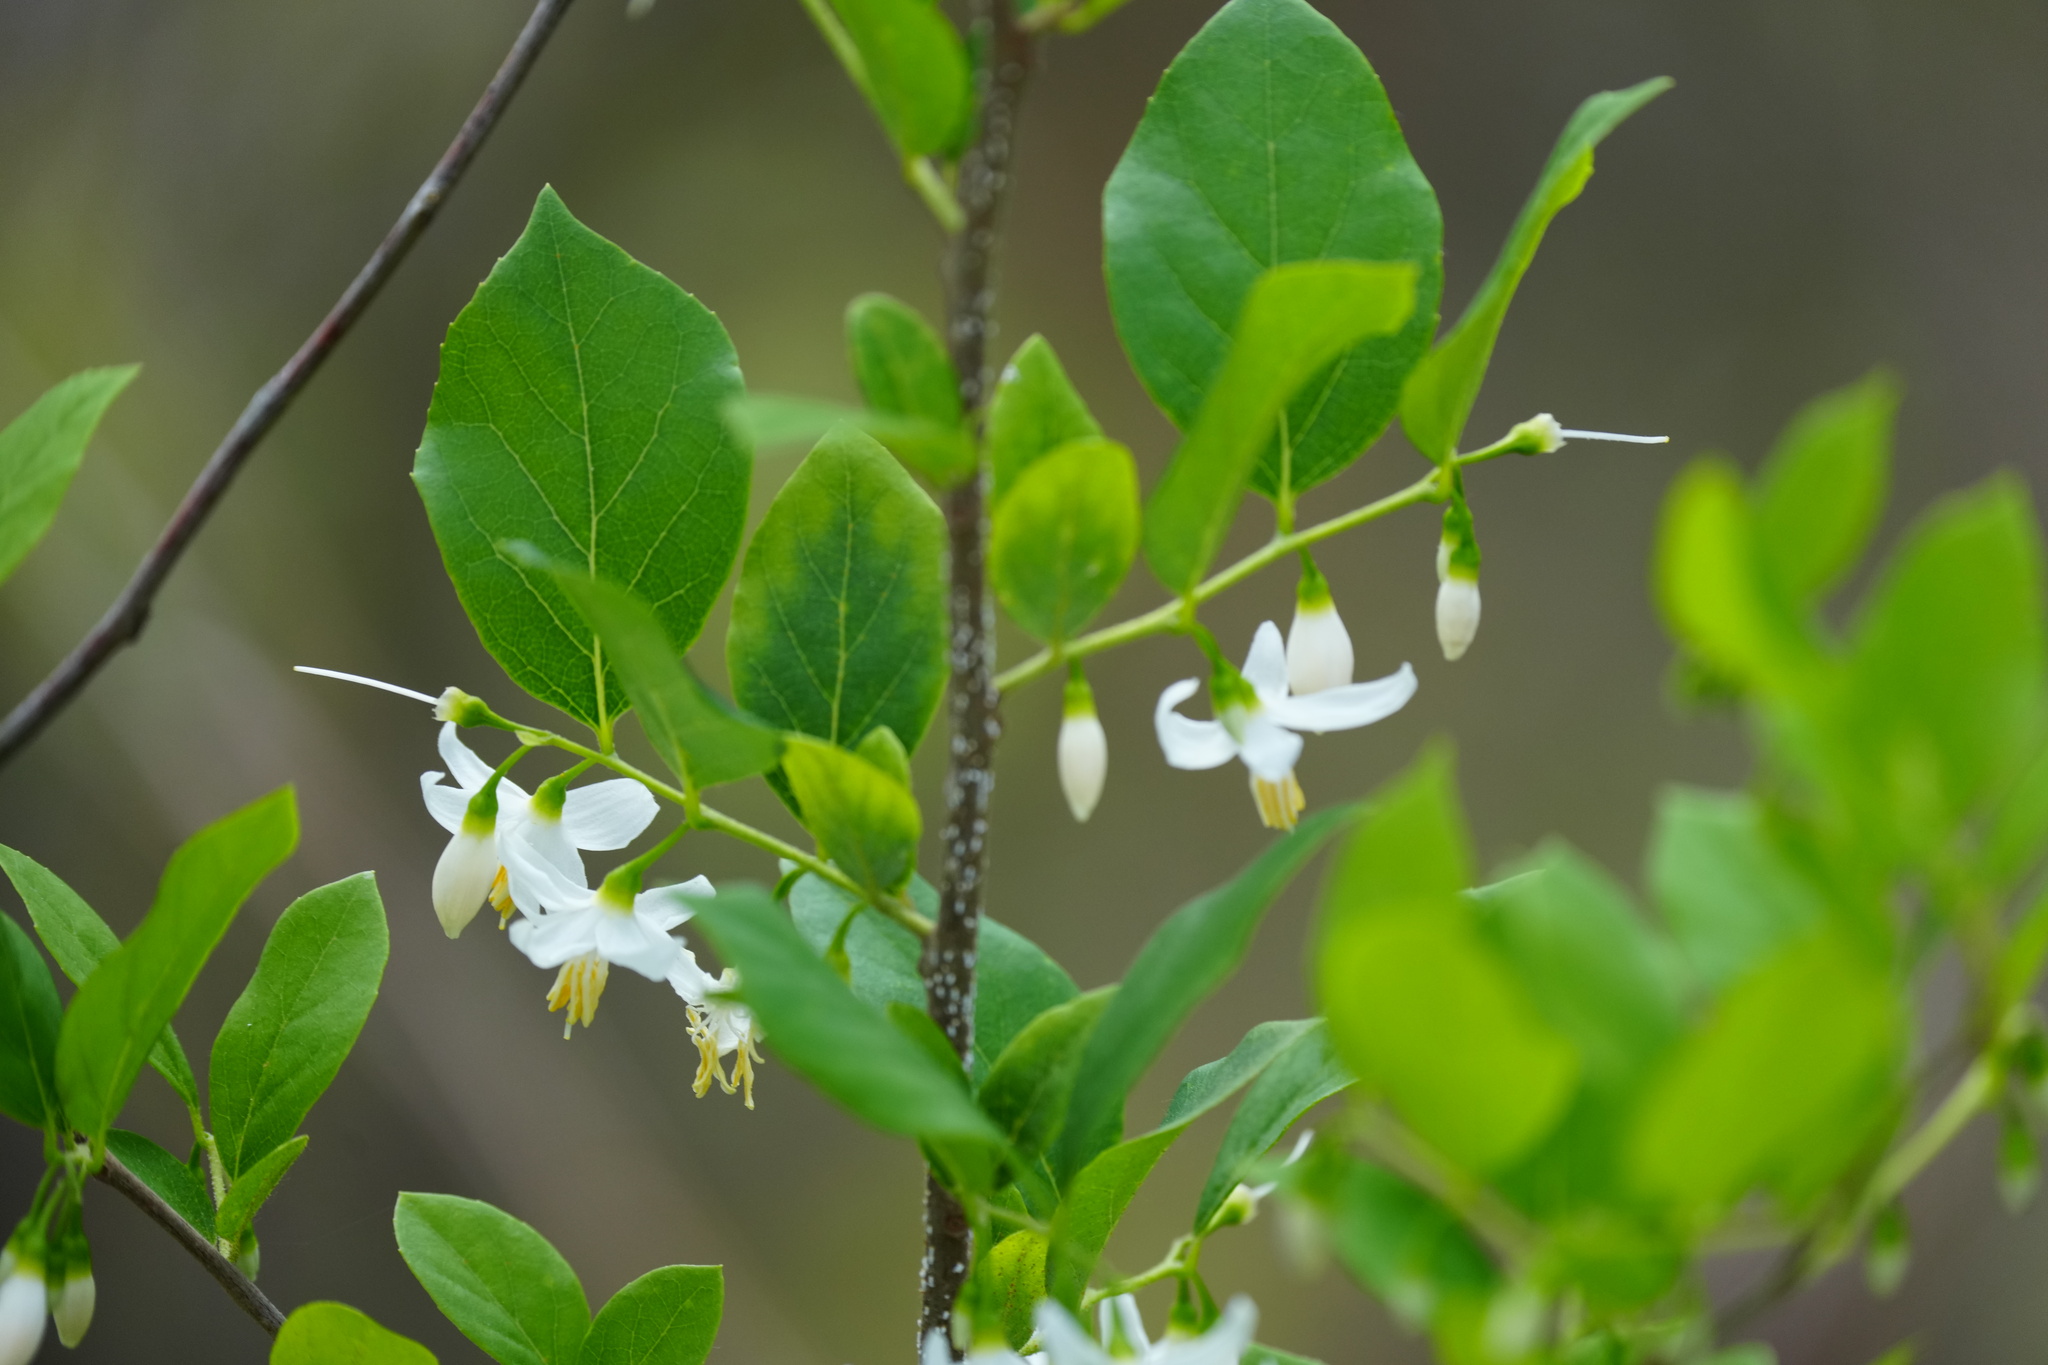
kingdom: Plantae
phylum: Tracheophyta
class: Magnoliopsida
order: Ericales
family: Styracaceae
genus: Styrax
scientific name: Styrax americanus
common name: American snowbell
